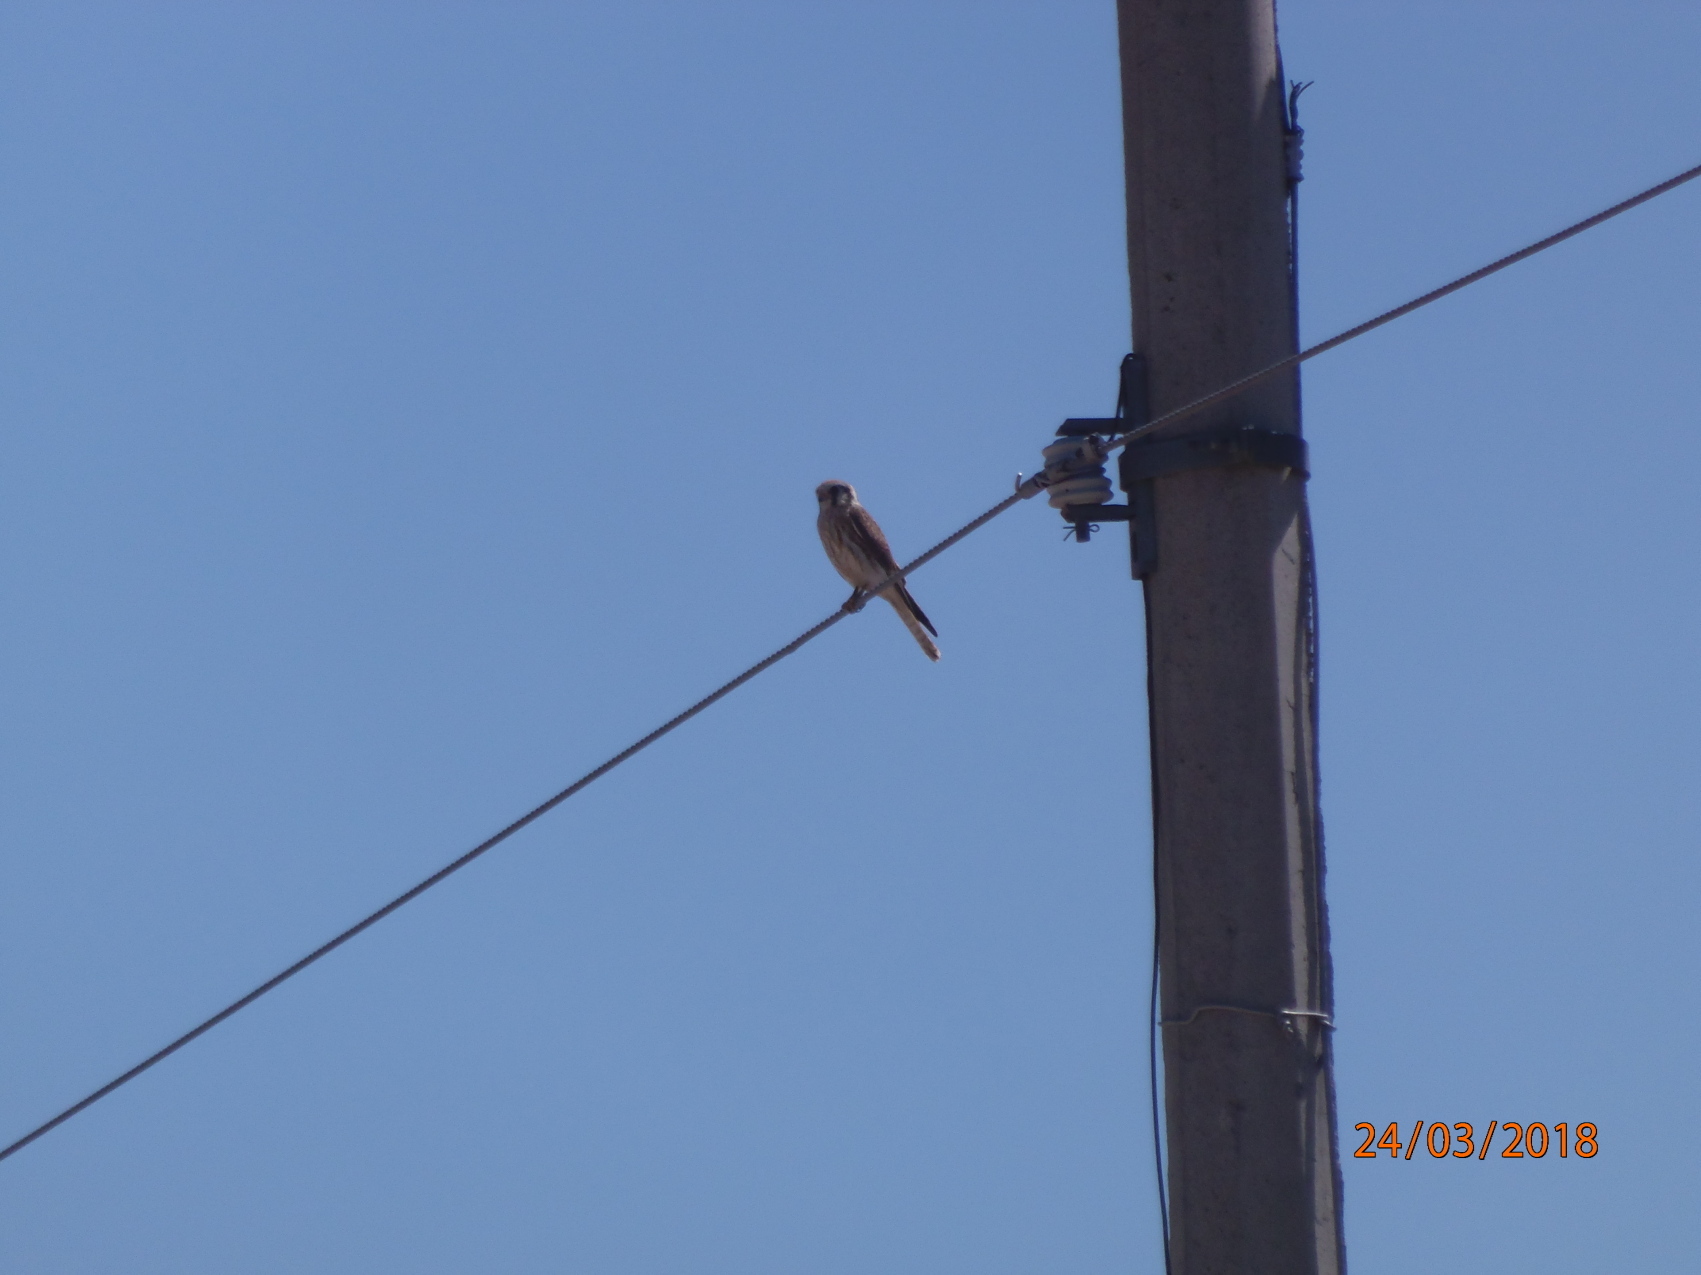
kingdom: Animalia
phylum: Chordata
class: Aves
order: Falconiformes
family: Falconidae
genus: Falco
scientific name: Falco sparverius
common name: American kestrel
